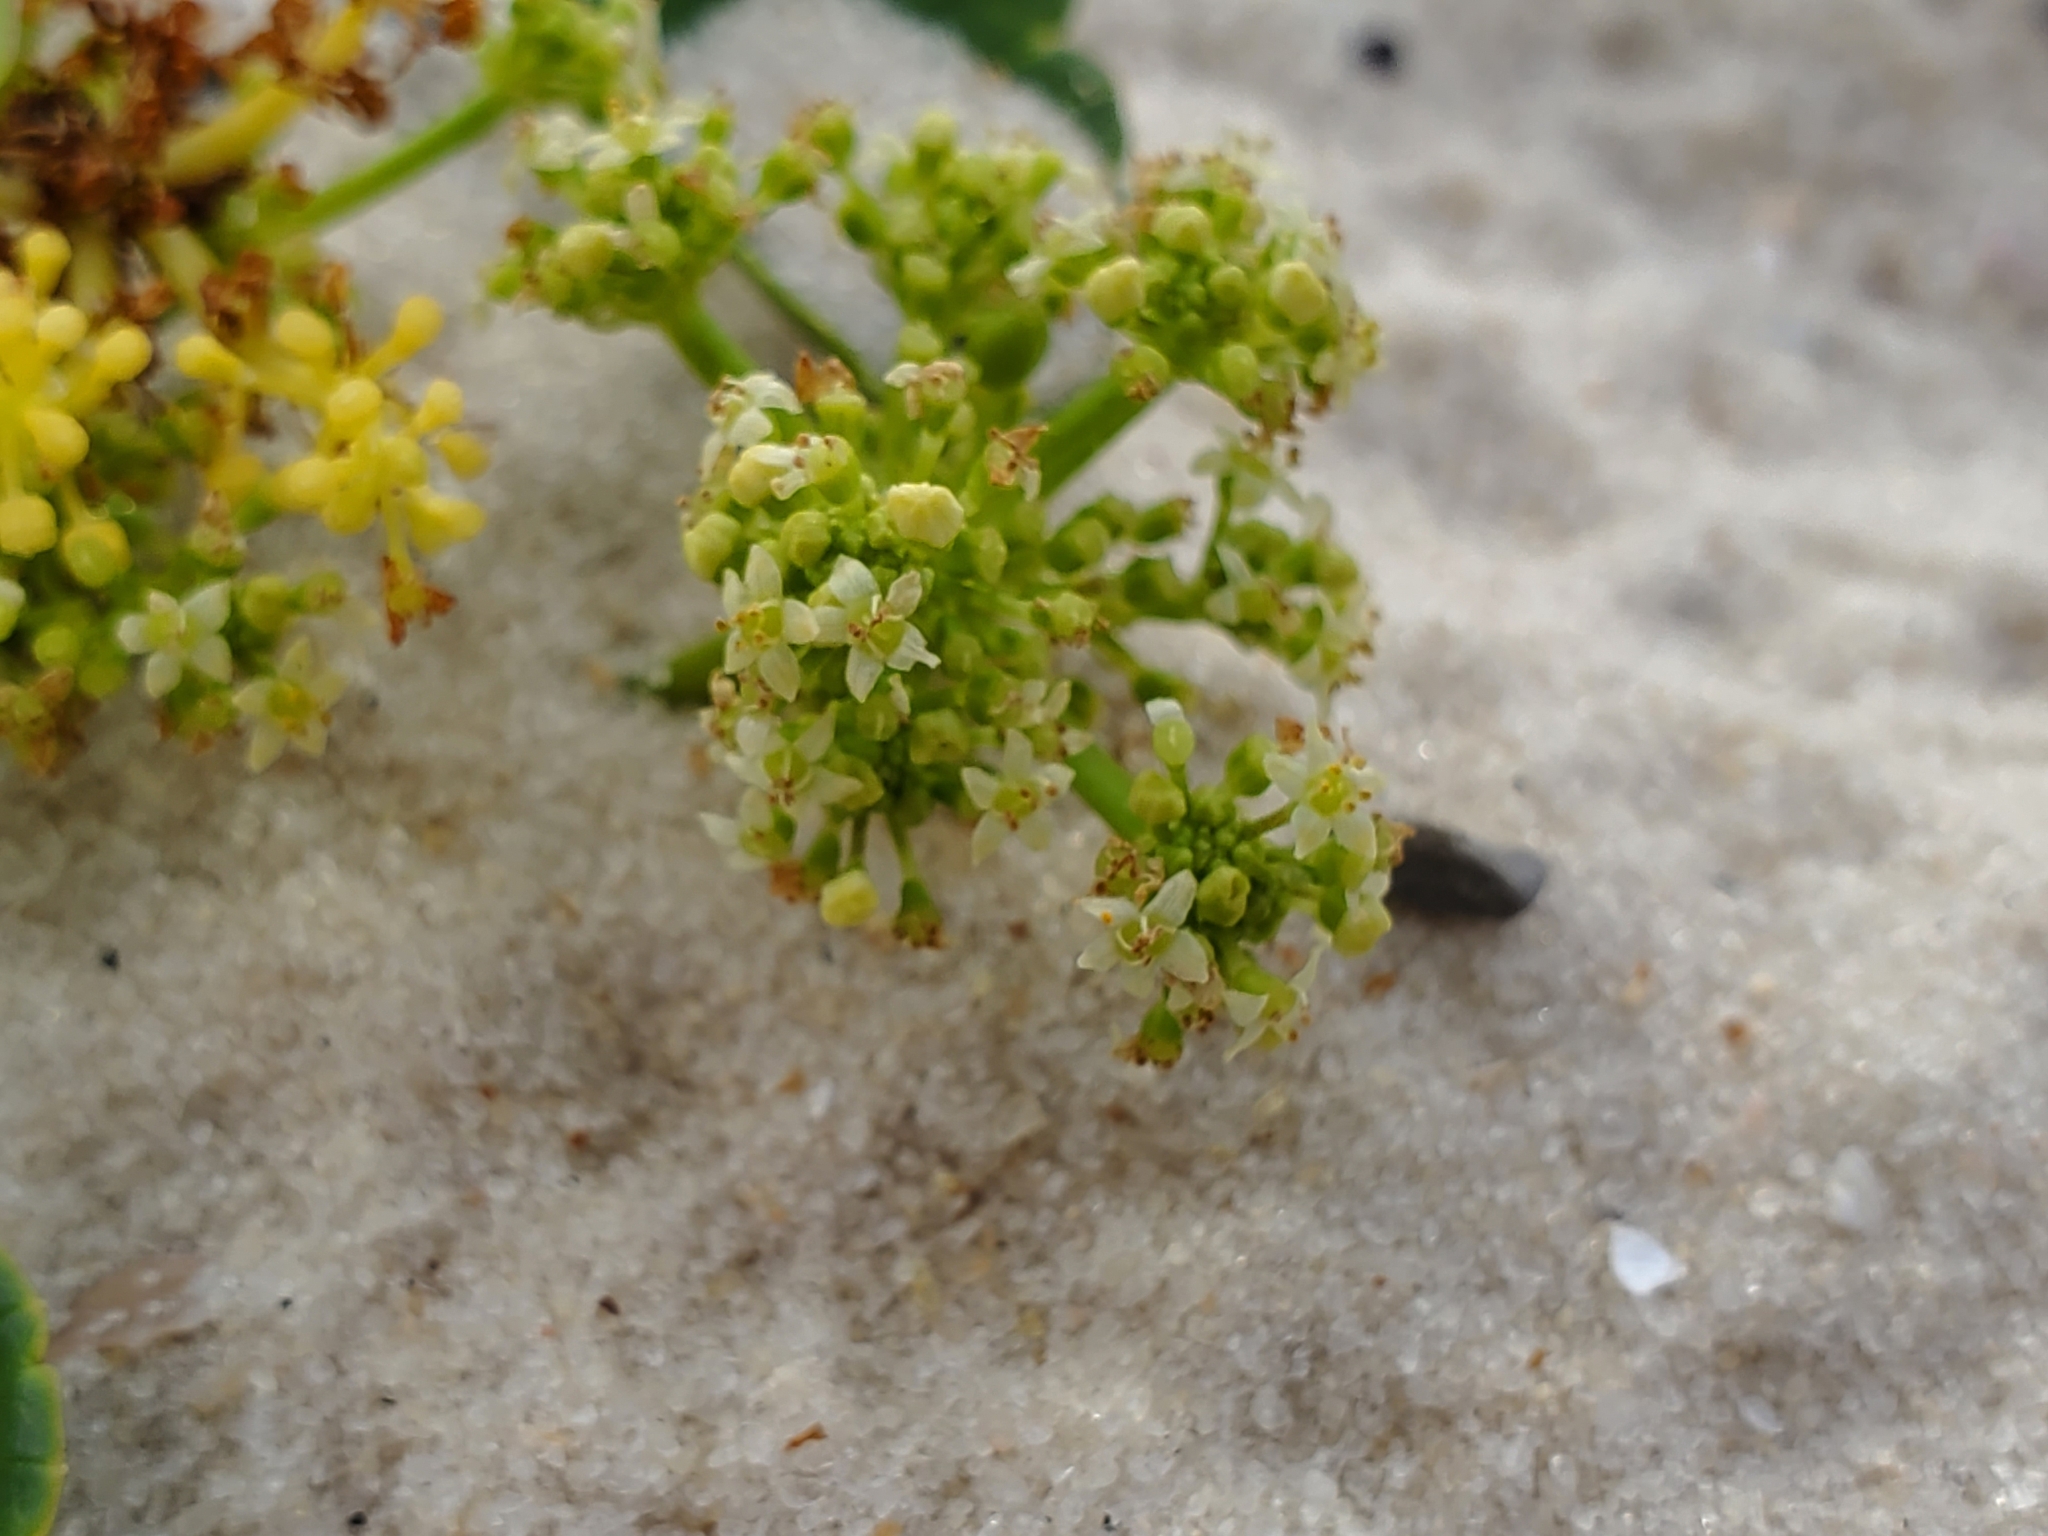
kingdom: Plantae
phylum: Tracheophyta
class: Magnoliopsida
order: Apiales
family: Araliaceae
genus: Hydrocotyle
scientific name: Hydrocotyle bonariensis
